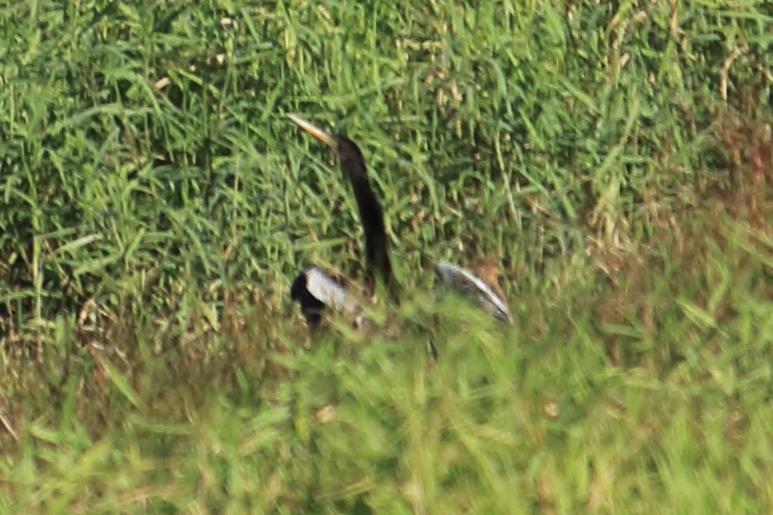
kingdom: Animalia
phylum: Chordata
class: Aves
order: Suliformes
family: Anhingidae
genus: Anhinga
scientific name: Anhinga anhinga
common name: Anhinga
